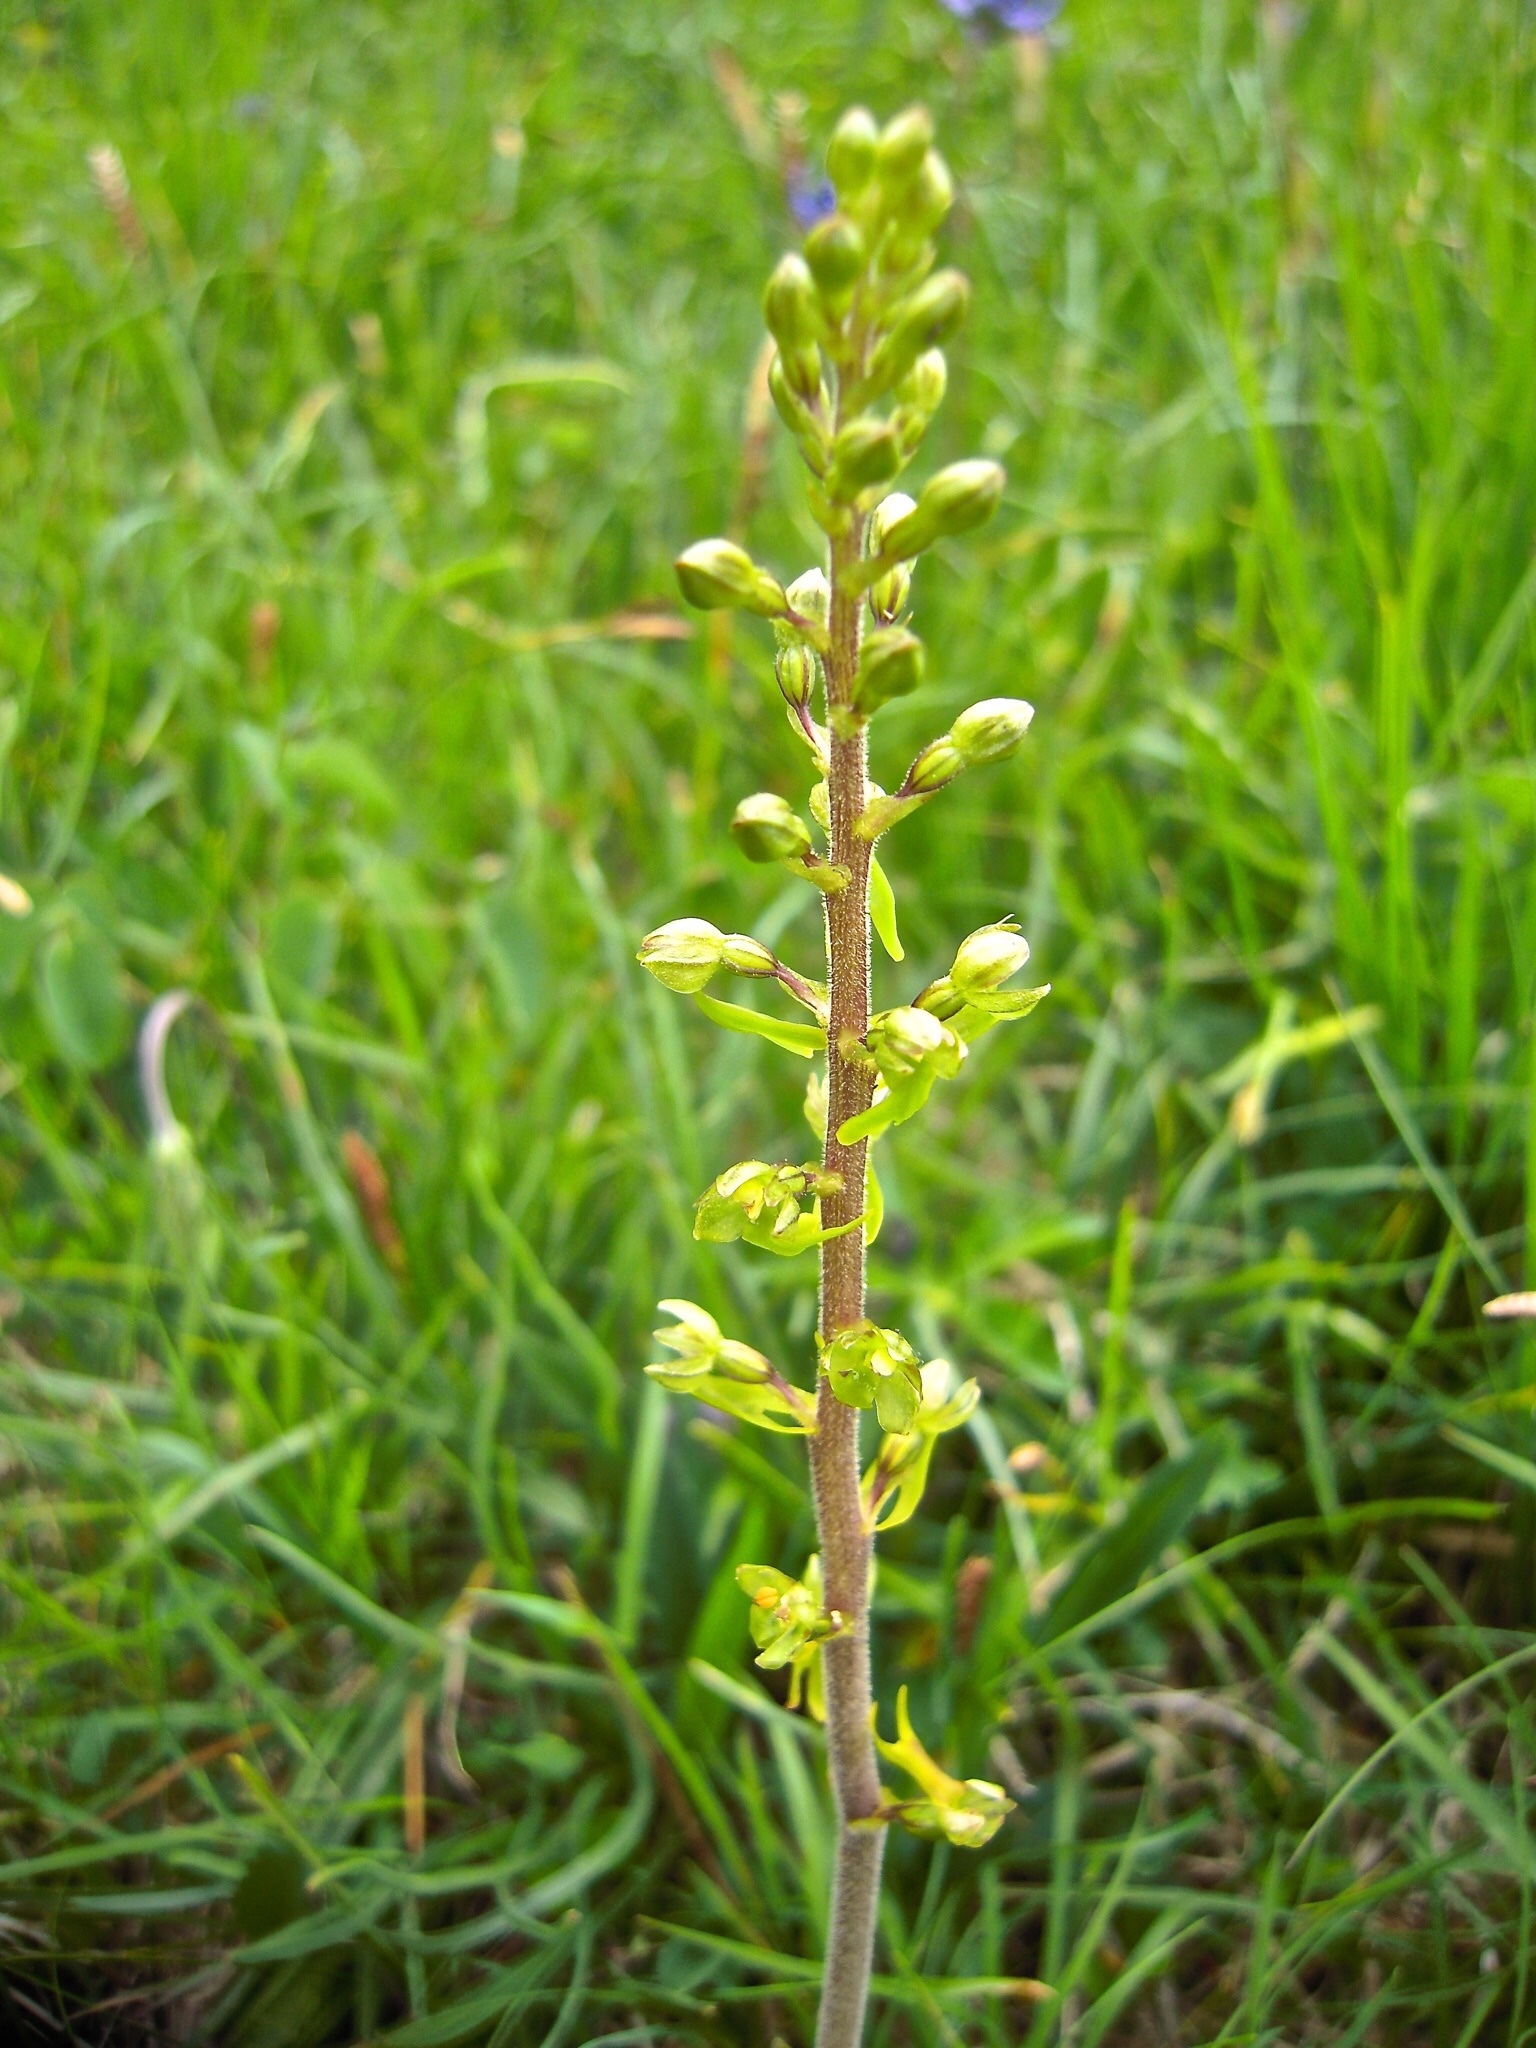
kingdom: Plantae
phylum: Tracheophyta
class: Liliopsida
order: Asparagales
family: Orchidaceae
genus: Neottia
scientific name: Neottia ovata
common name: Common twayblade
